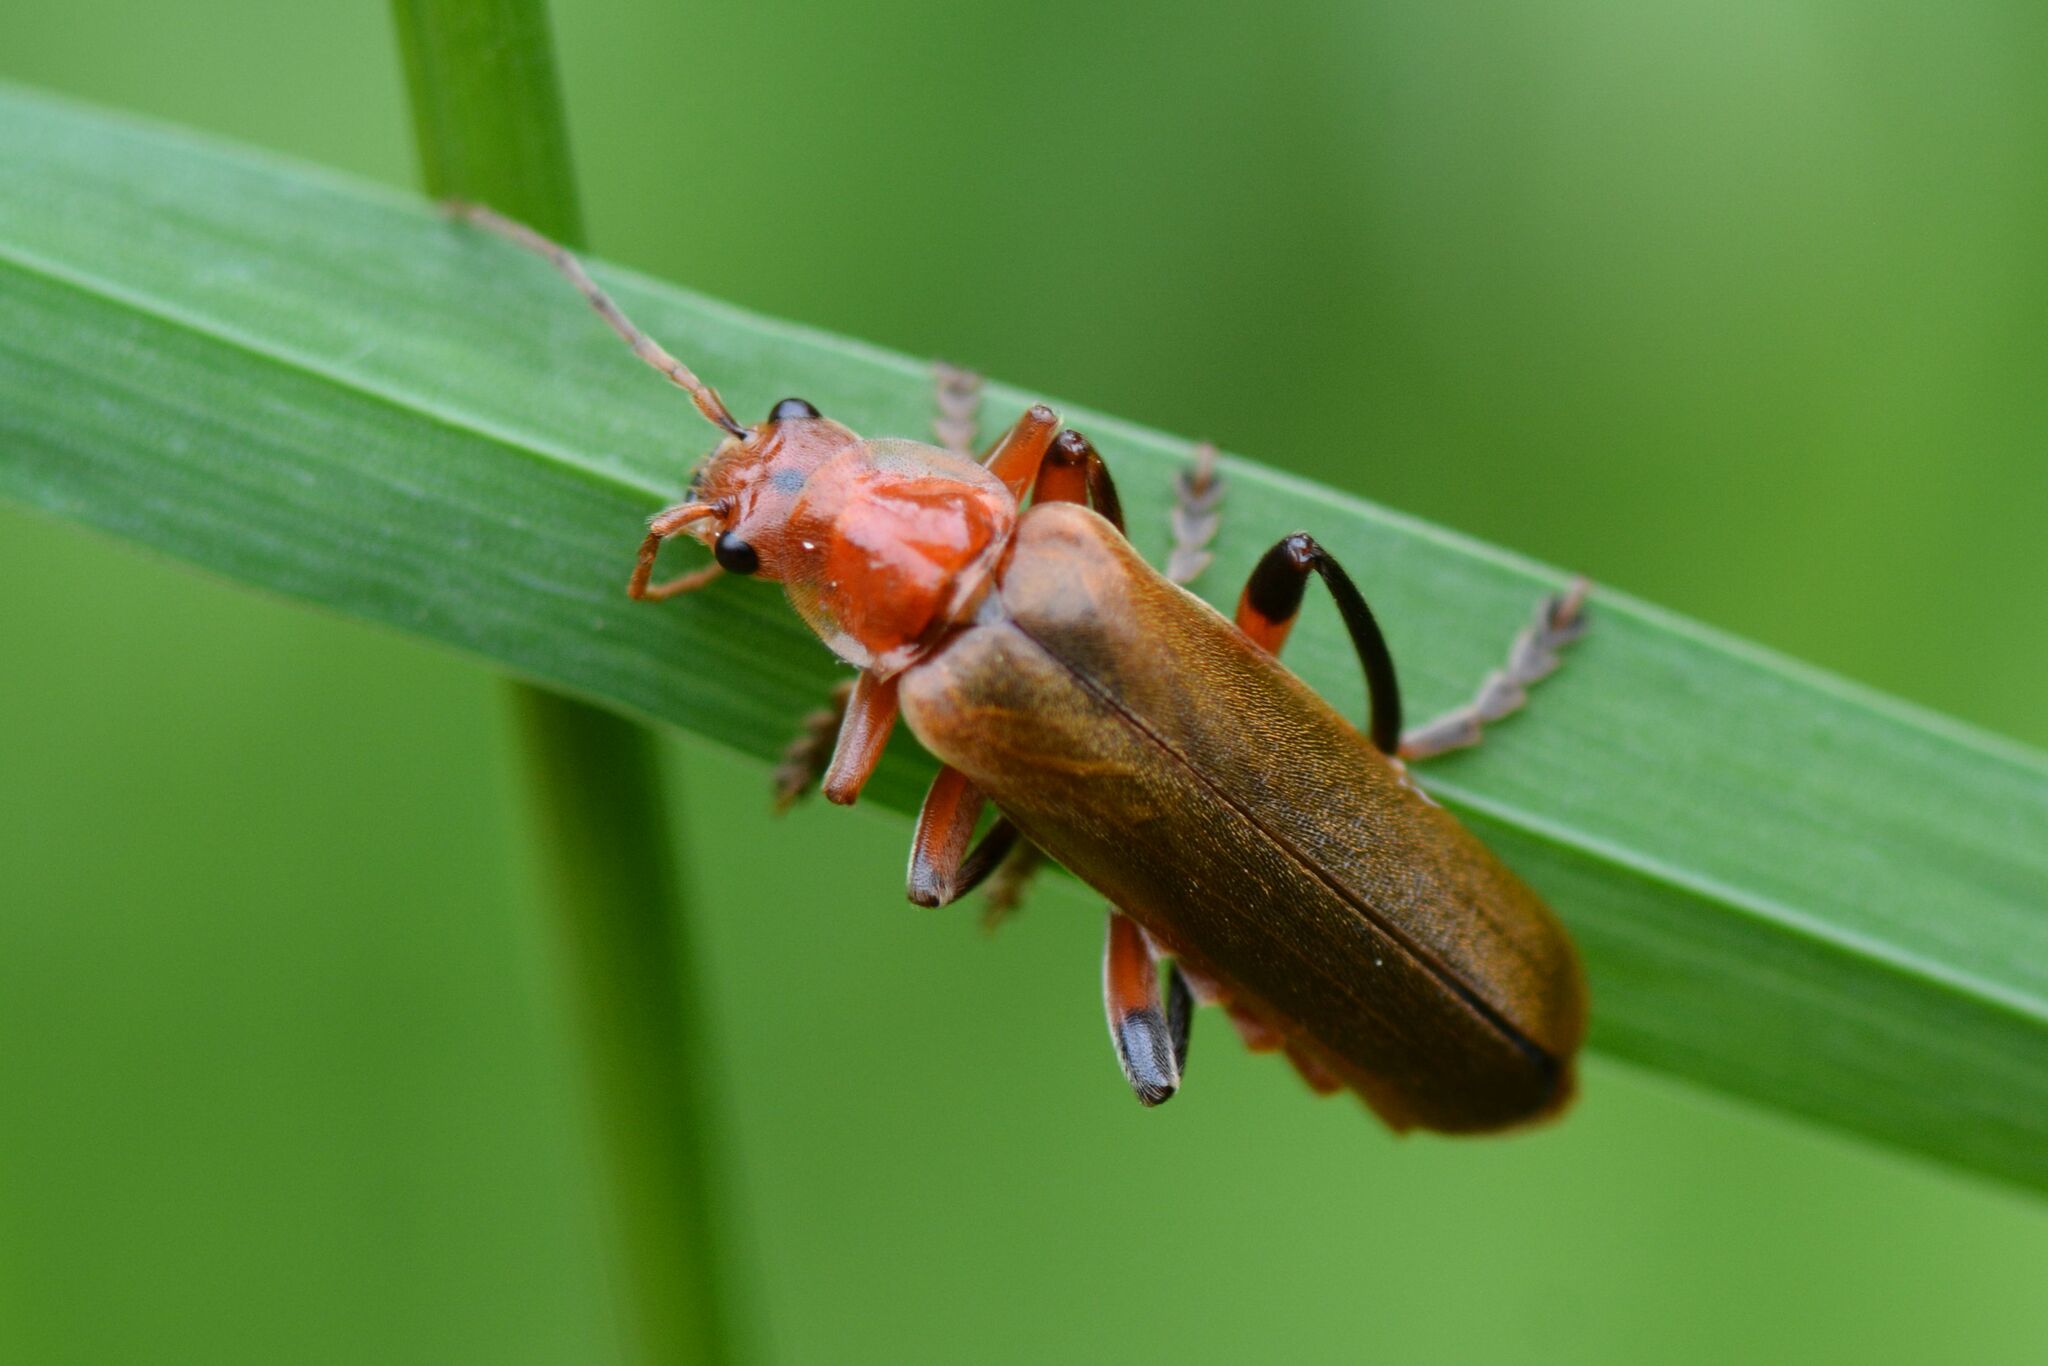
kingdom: Animalia
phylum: Arthropoda
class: Insecta
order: Coleoptera
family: Cantharidae
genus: Cantharis
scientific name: Cantharis livida
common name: Livid soldier beetle
